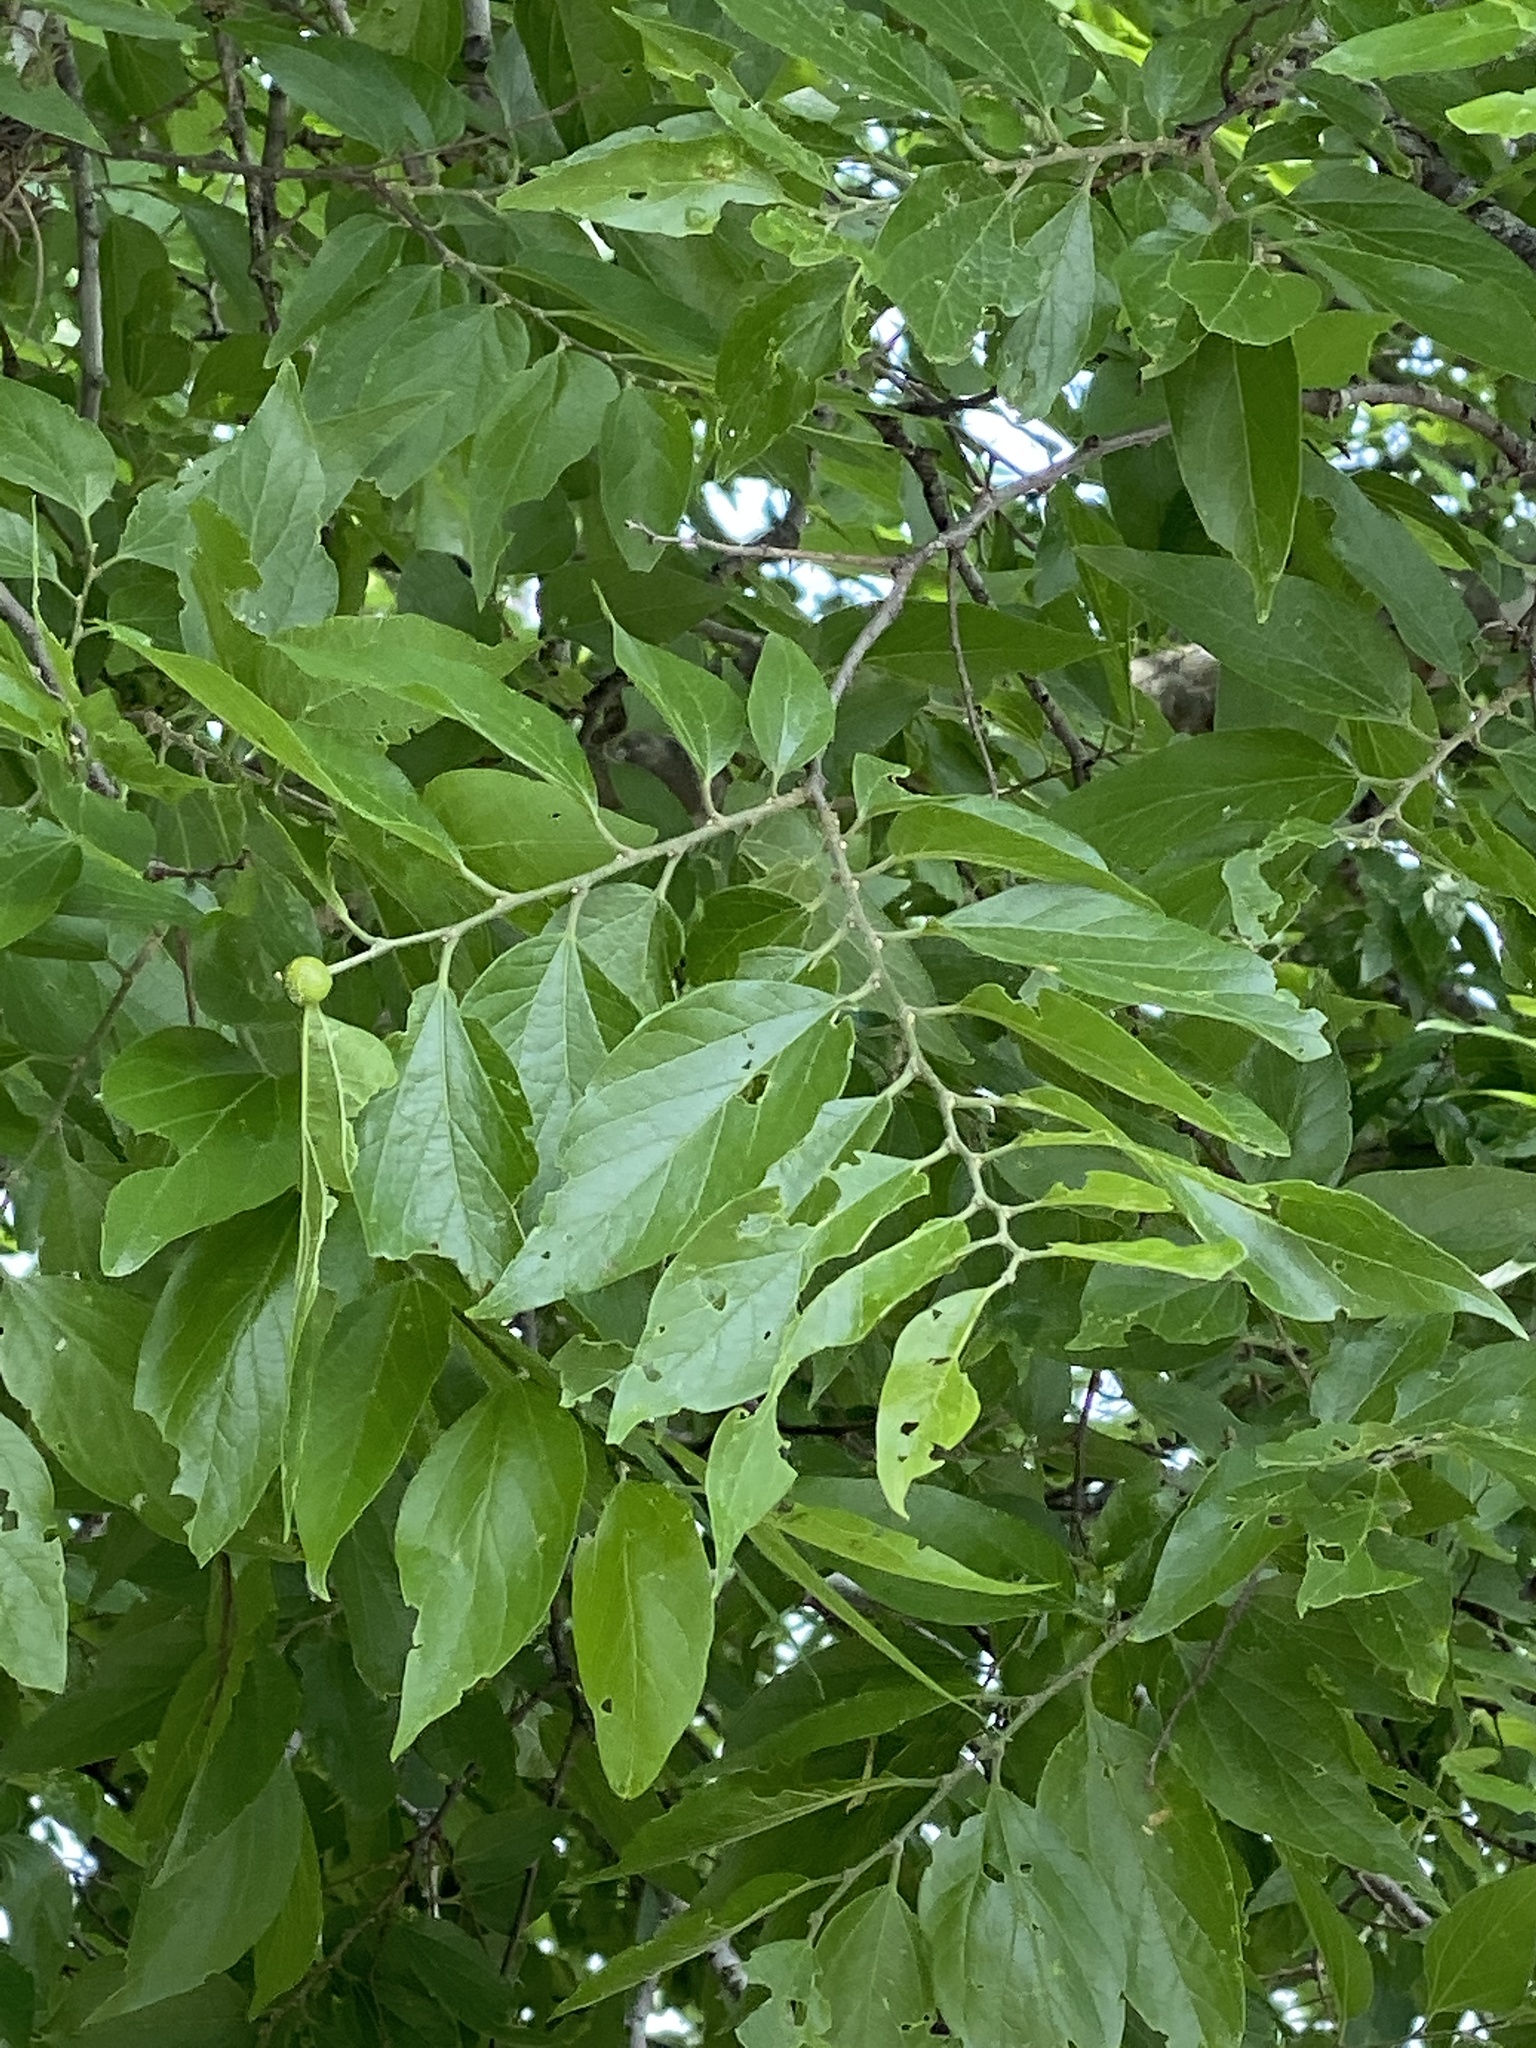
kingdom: Plantae
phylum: Tracheophyta
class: Magnoliopsida
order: Rosales
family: Cannabaceae
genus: Celtis
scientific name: Celtis laevigata
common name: Sugarberry
